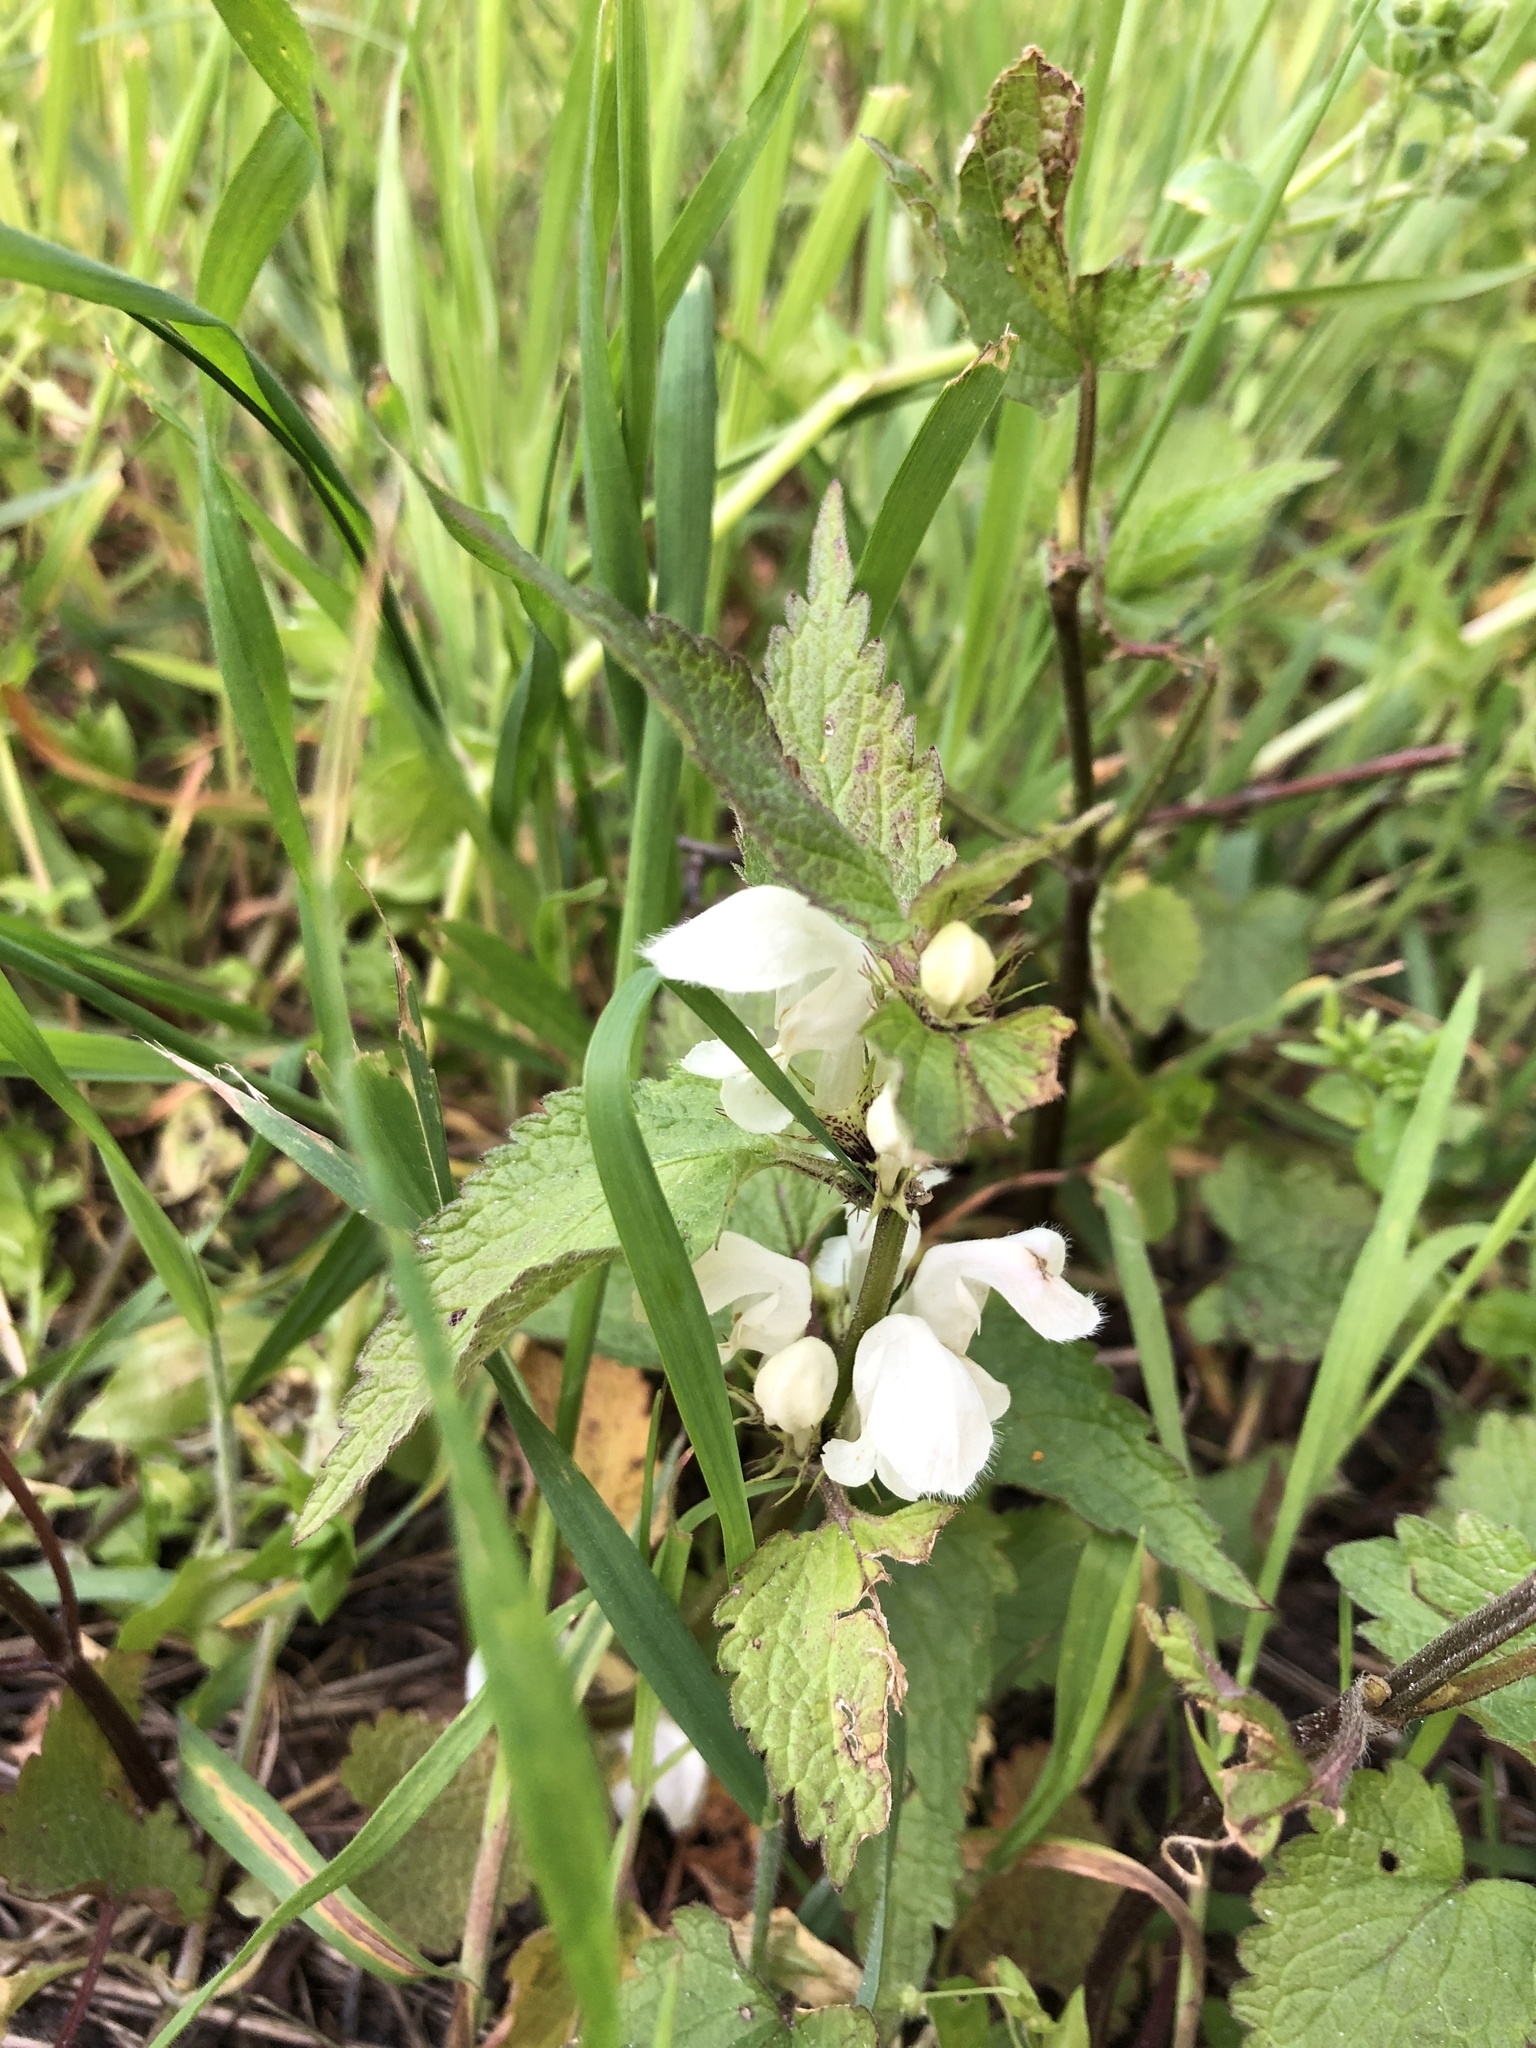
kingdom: Plantae
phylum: Tracheophyta
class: Magnoliopsida
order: Lamiales
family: Lamiaceae
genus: Lamium
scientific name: Lamium album
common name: White dead-nettle
